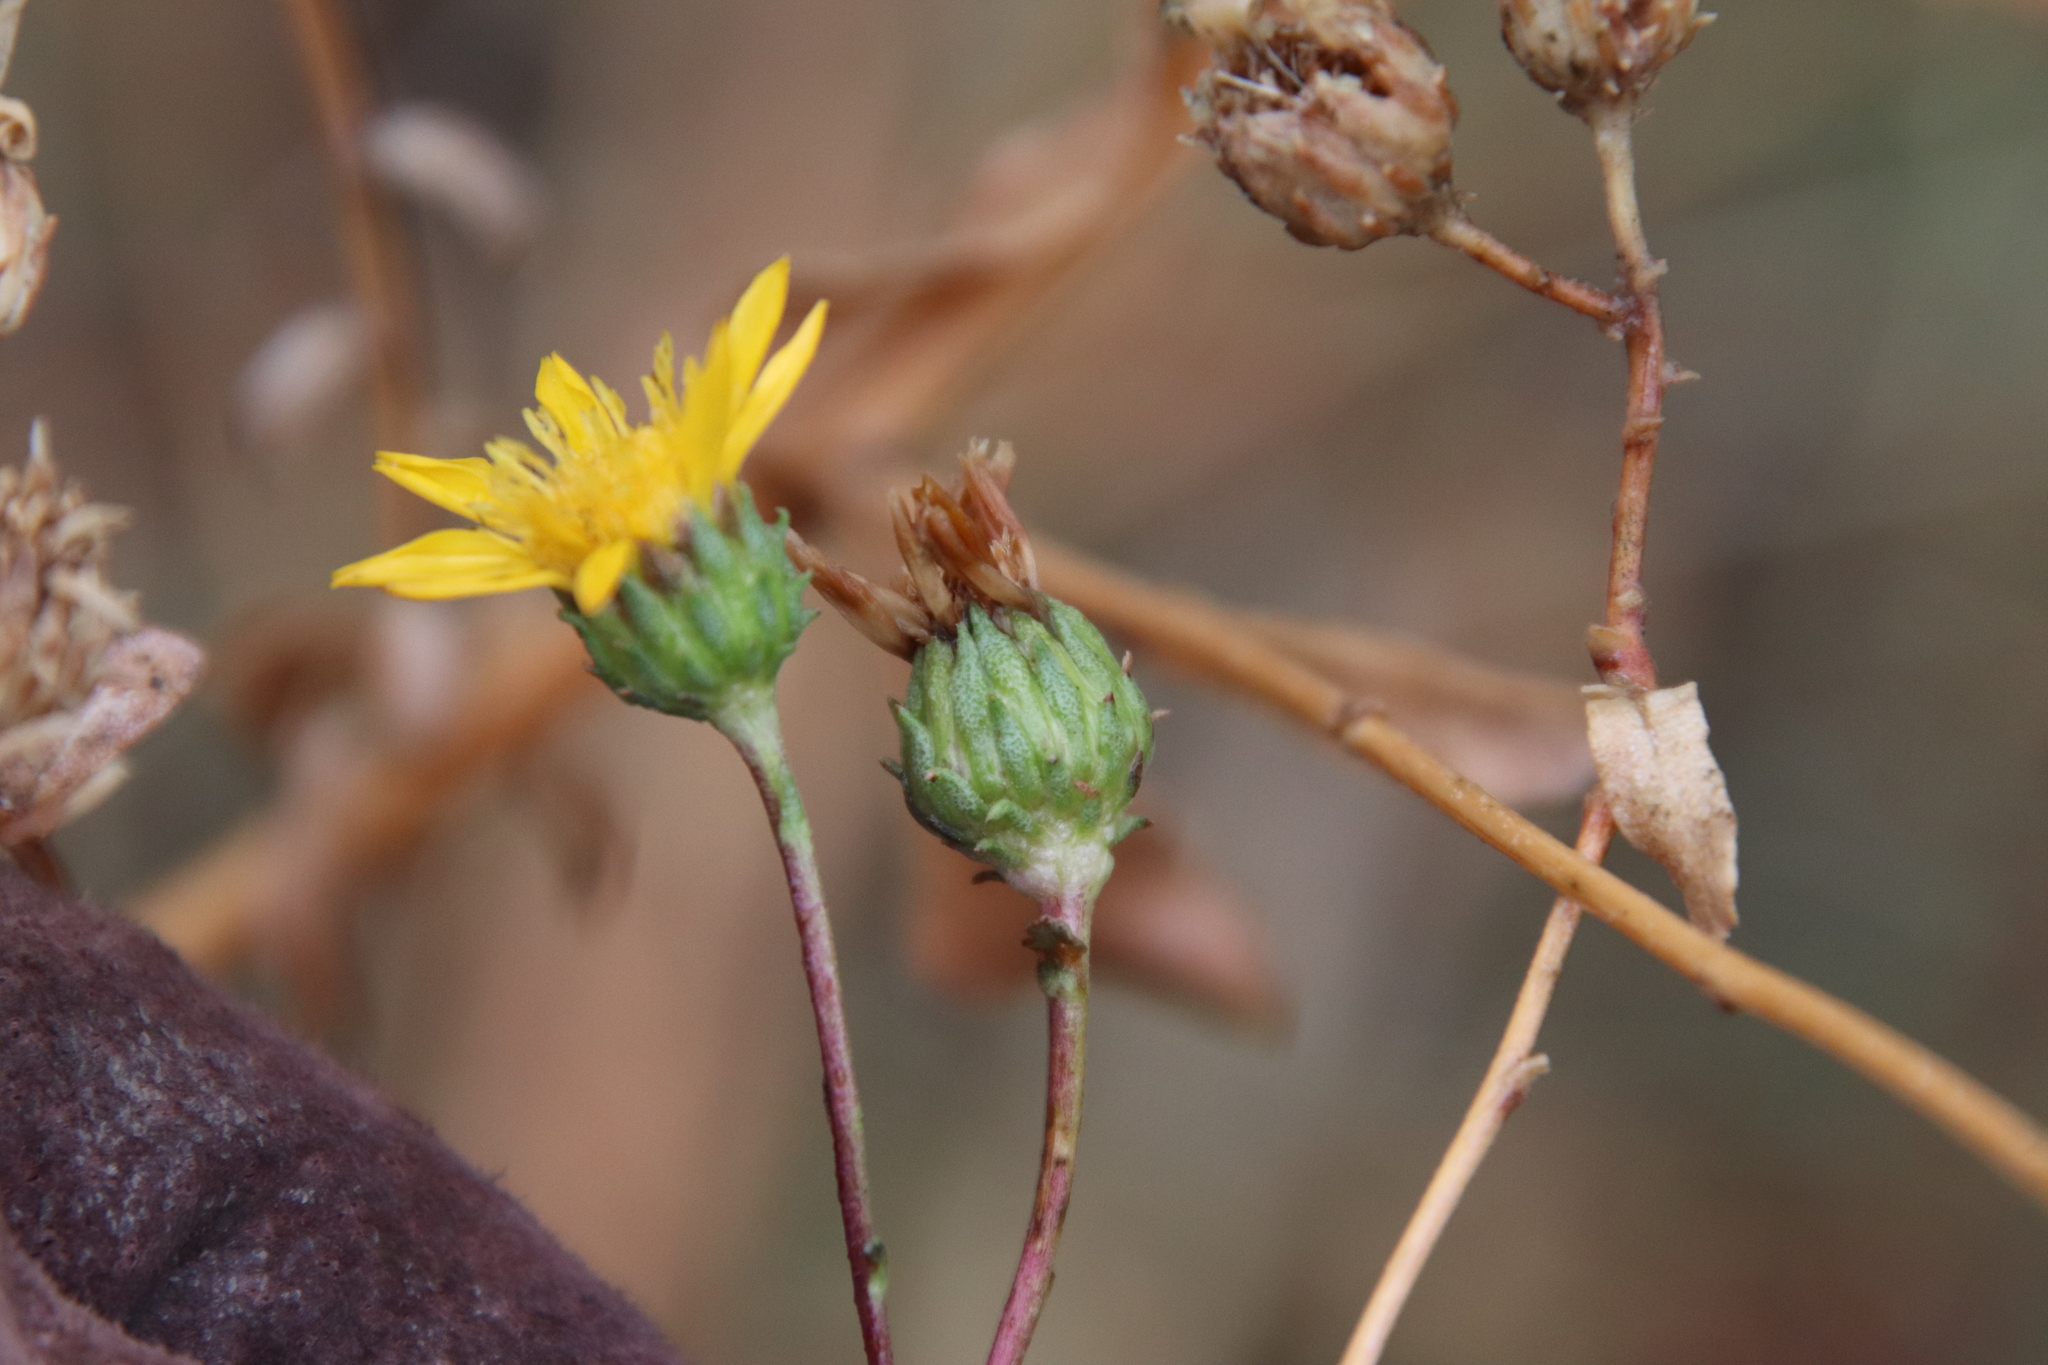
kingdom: Plantae
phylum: Tracheophyta
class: Magnoliopsida
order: Asterales
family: Asteraceae
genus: Grindelia
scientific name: Grindelia hirsutula
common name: Hairy gumweed
